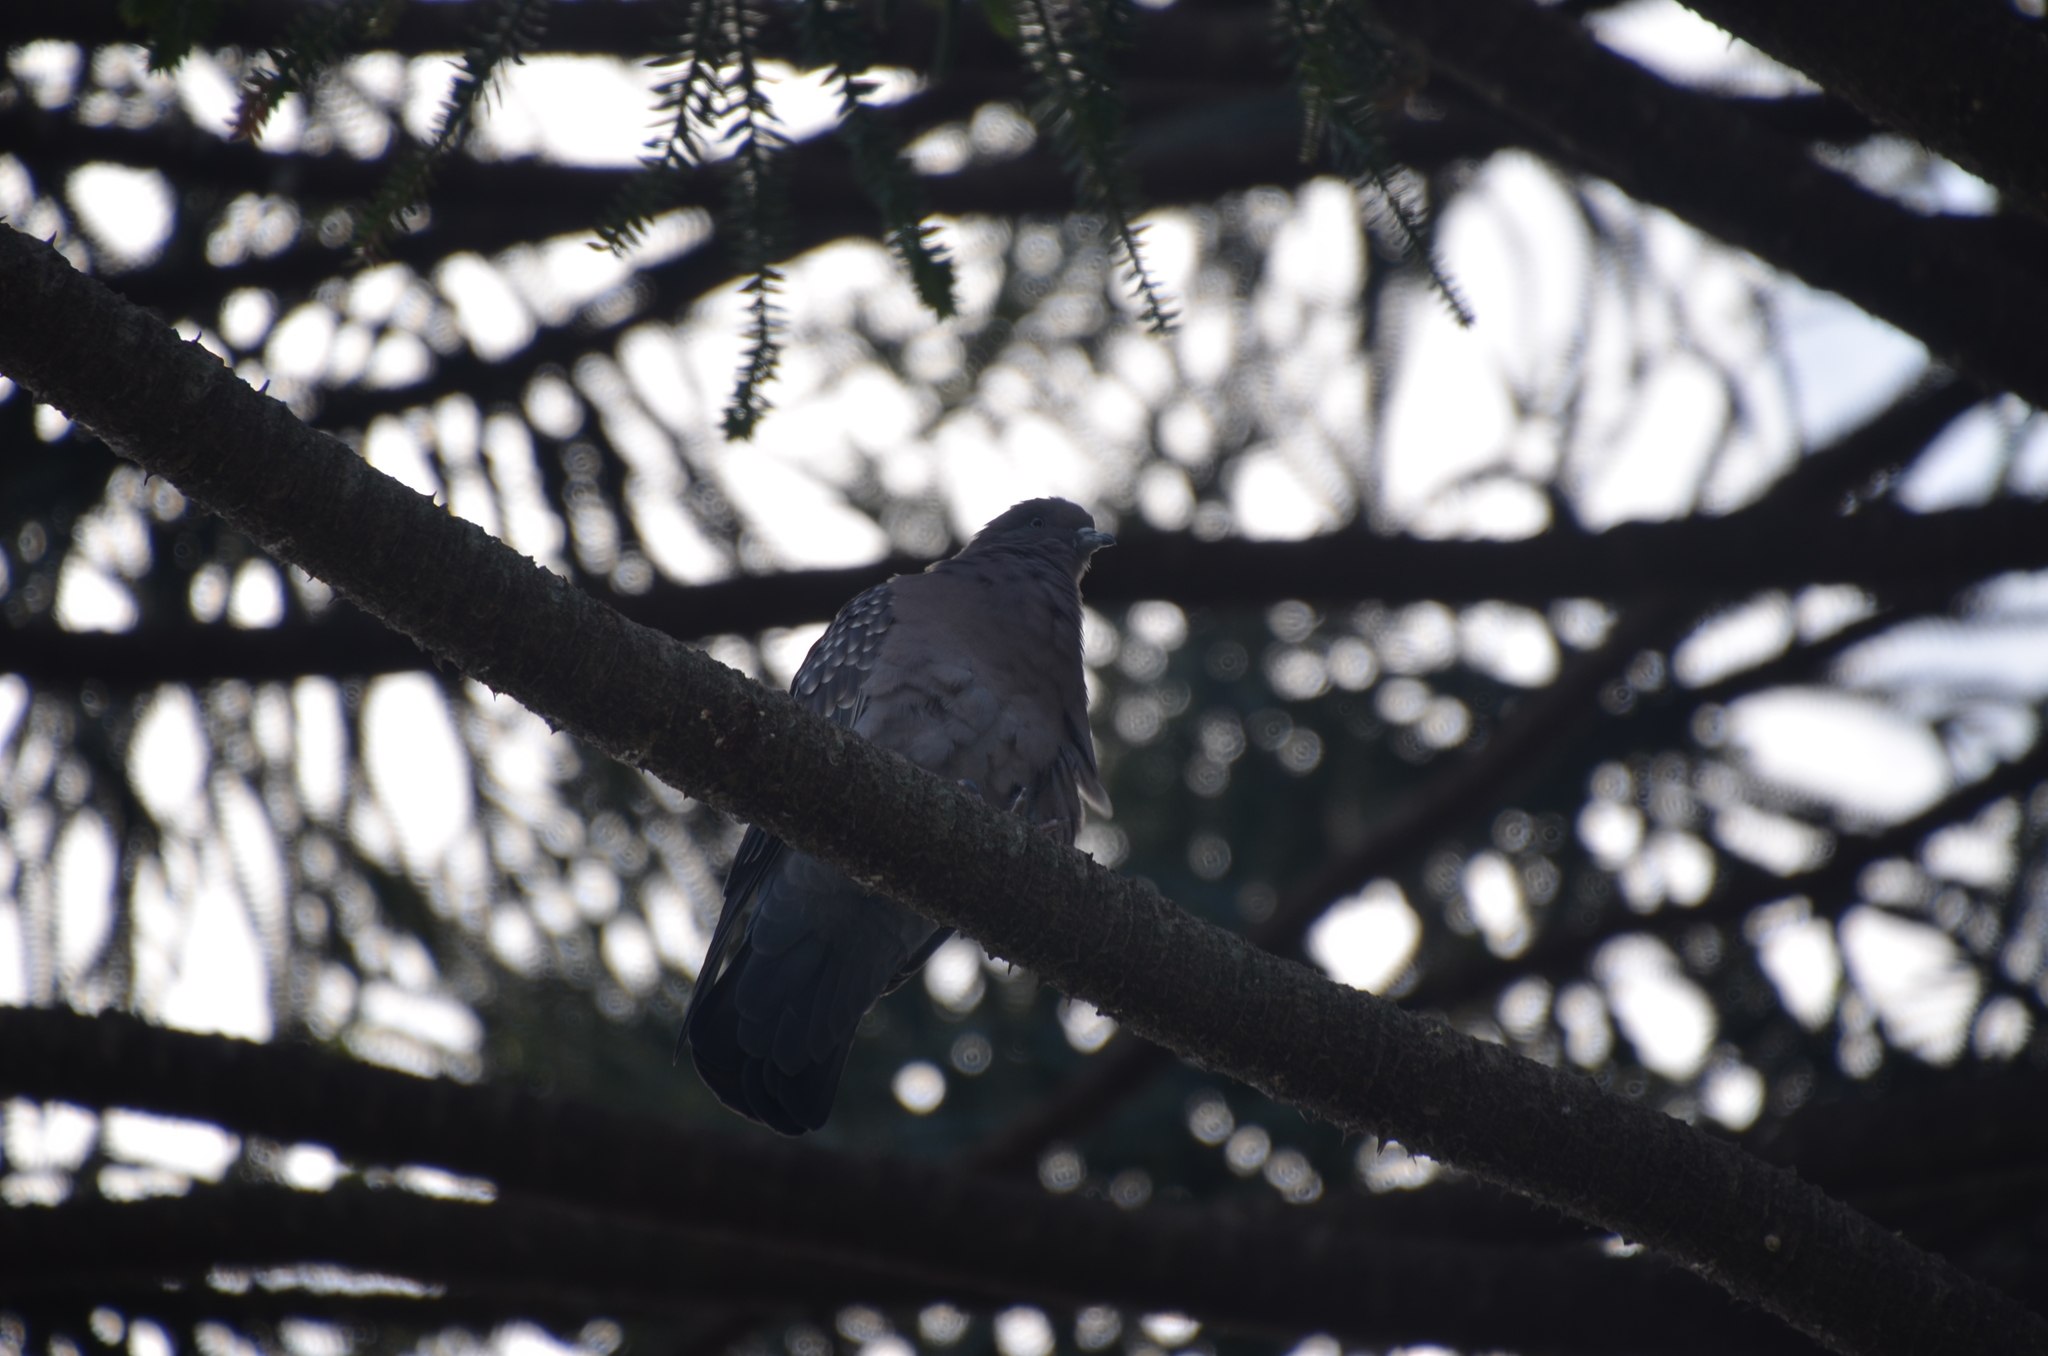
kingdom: Animalia
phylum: Chordata
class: Aves
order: Columbiformes
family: Columbidae
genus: Patagioenas
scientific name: Patagioenas maculosa
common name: Spot-winged pigeon
